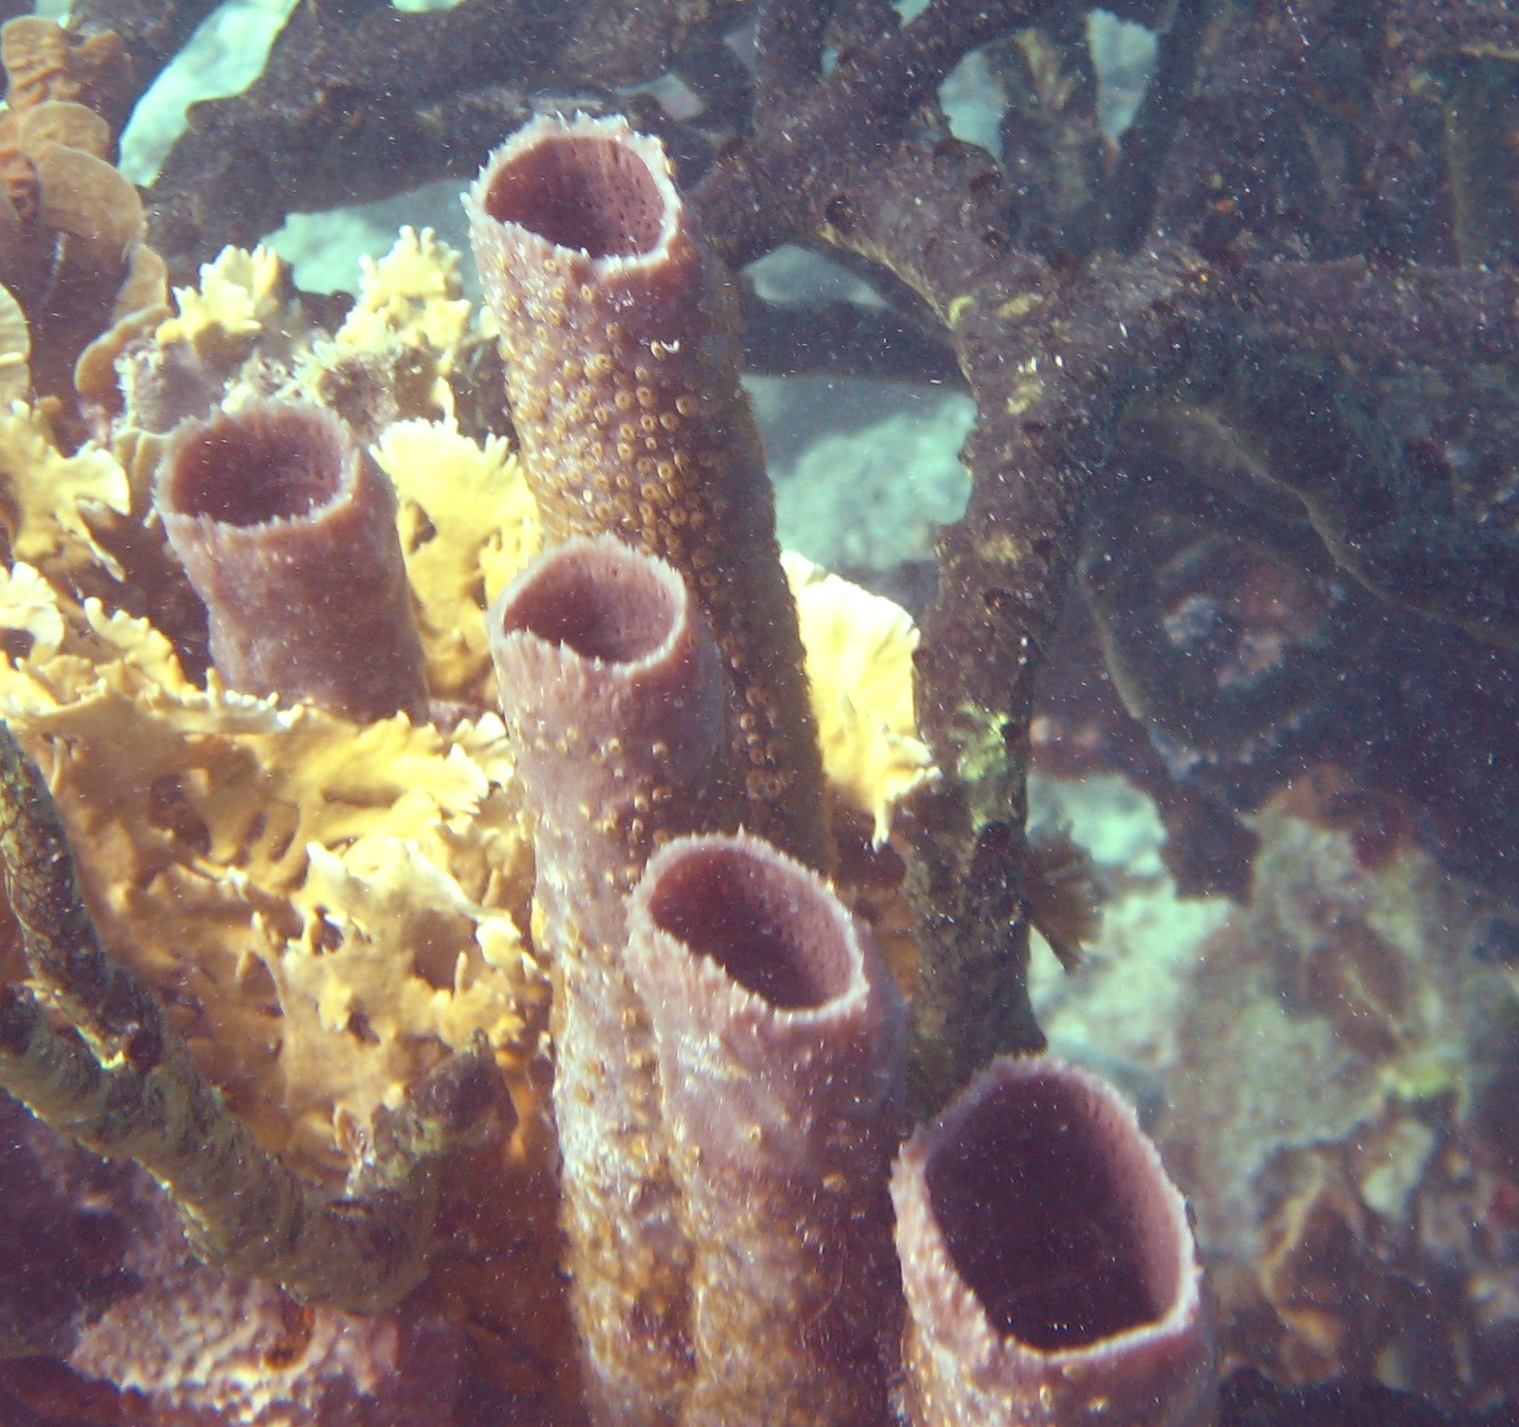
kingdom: Animalia
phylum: Porifera
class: Demospongiae
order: Haplosclerida
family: Callyspongiidae
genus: Callyspongia
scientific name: Callyspongia aculeata
